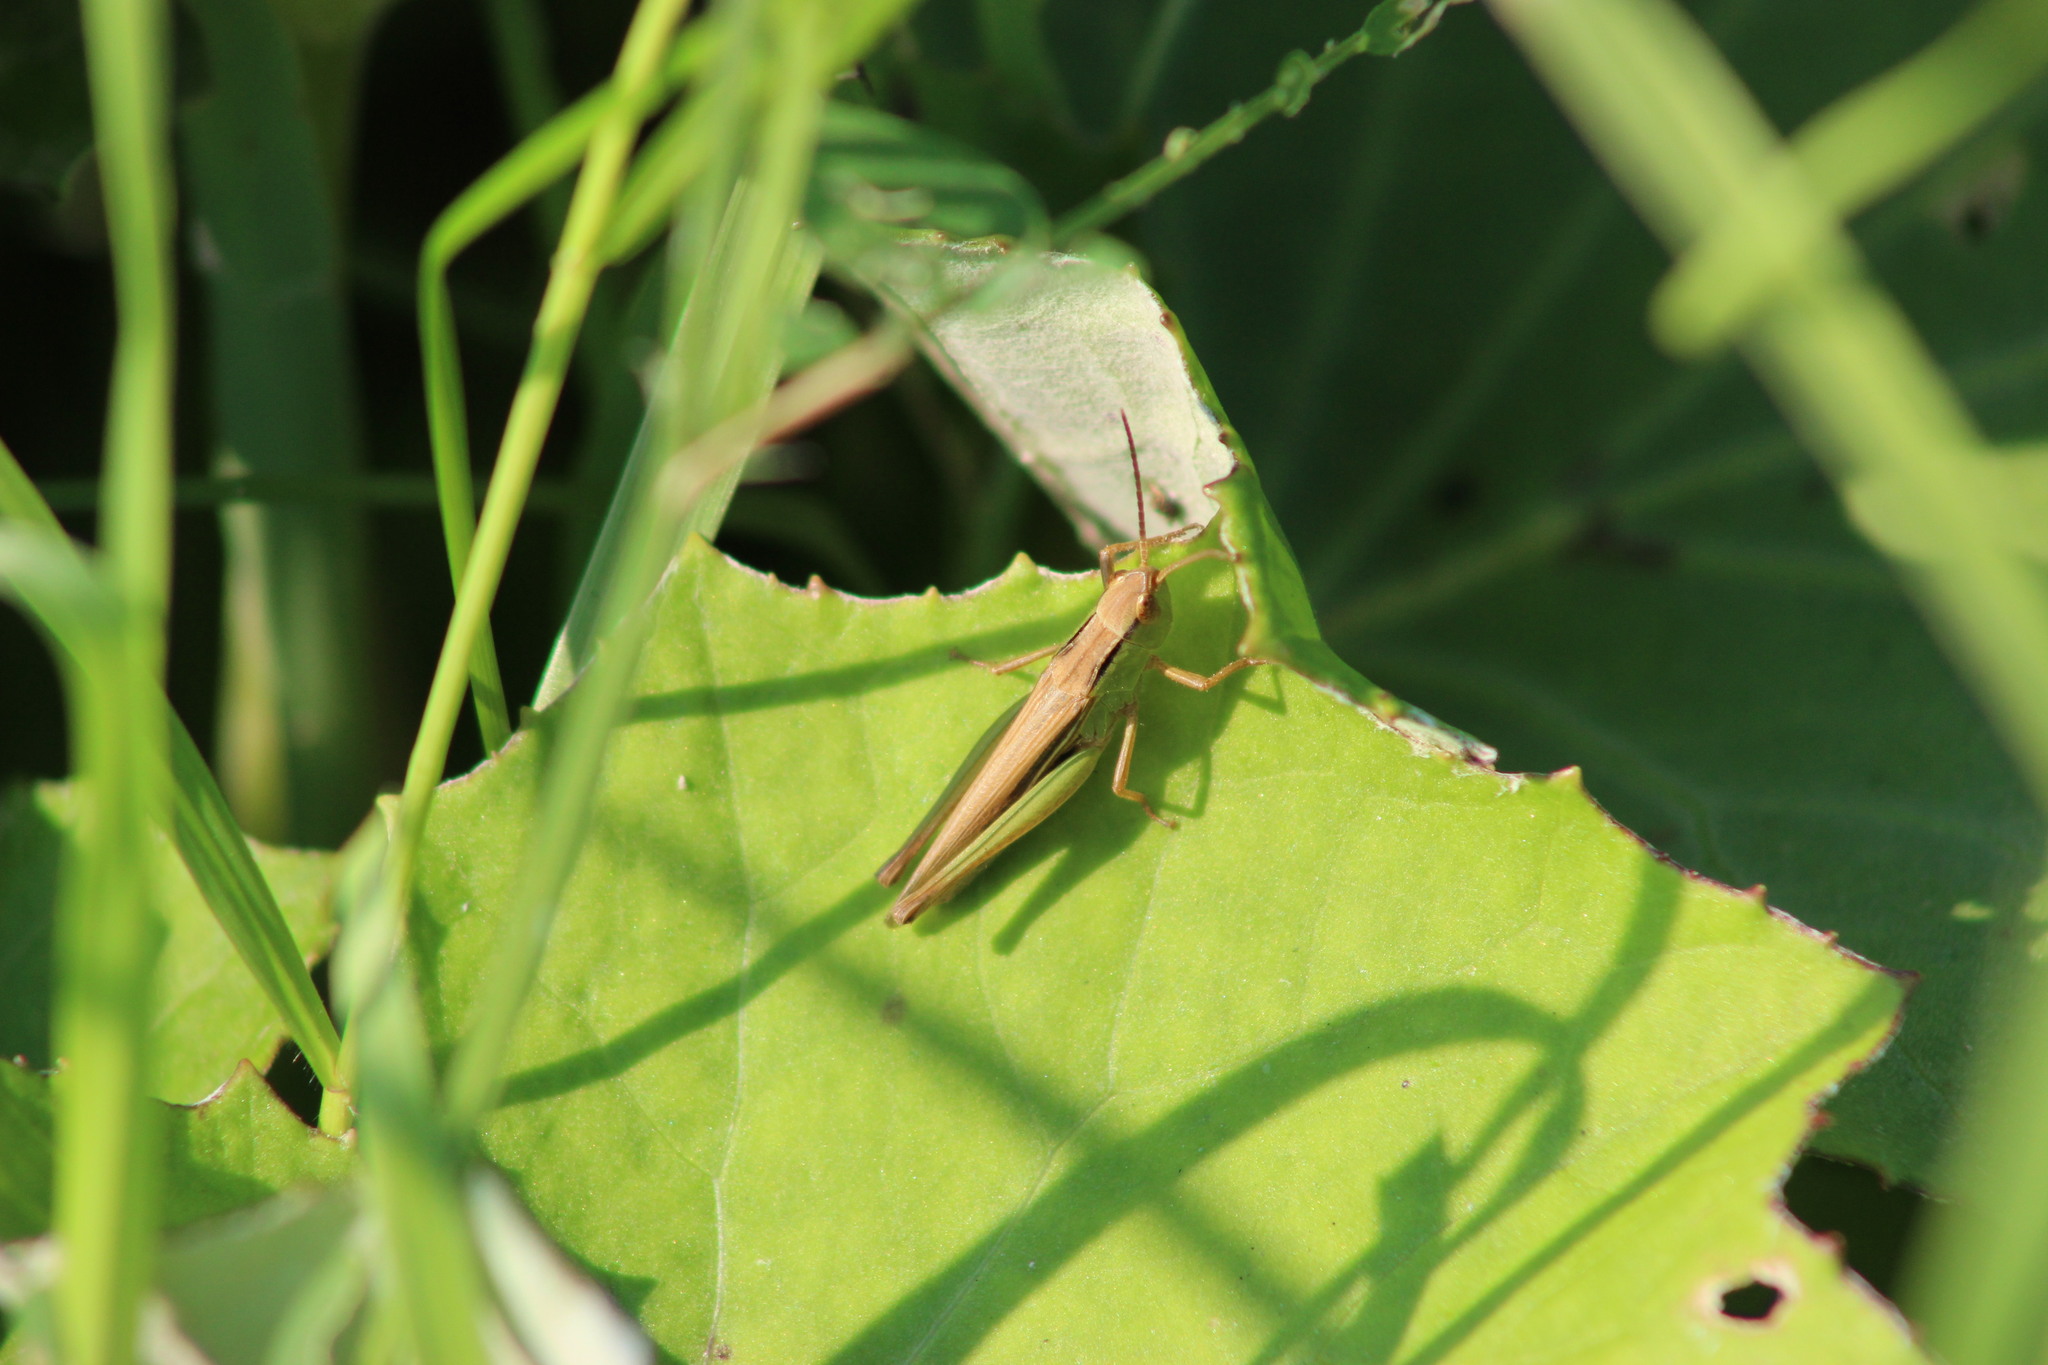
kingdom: Animalia
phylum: Arthropoda
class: Insecta
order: Orthoptera
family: Acrididae
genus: Chorthippus
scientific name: Chorthippus
